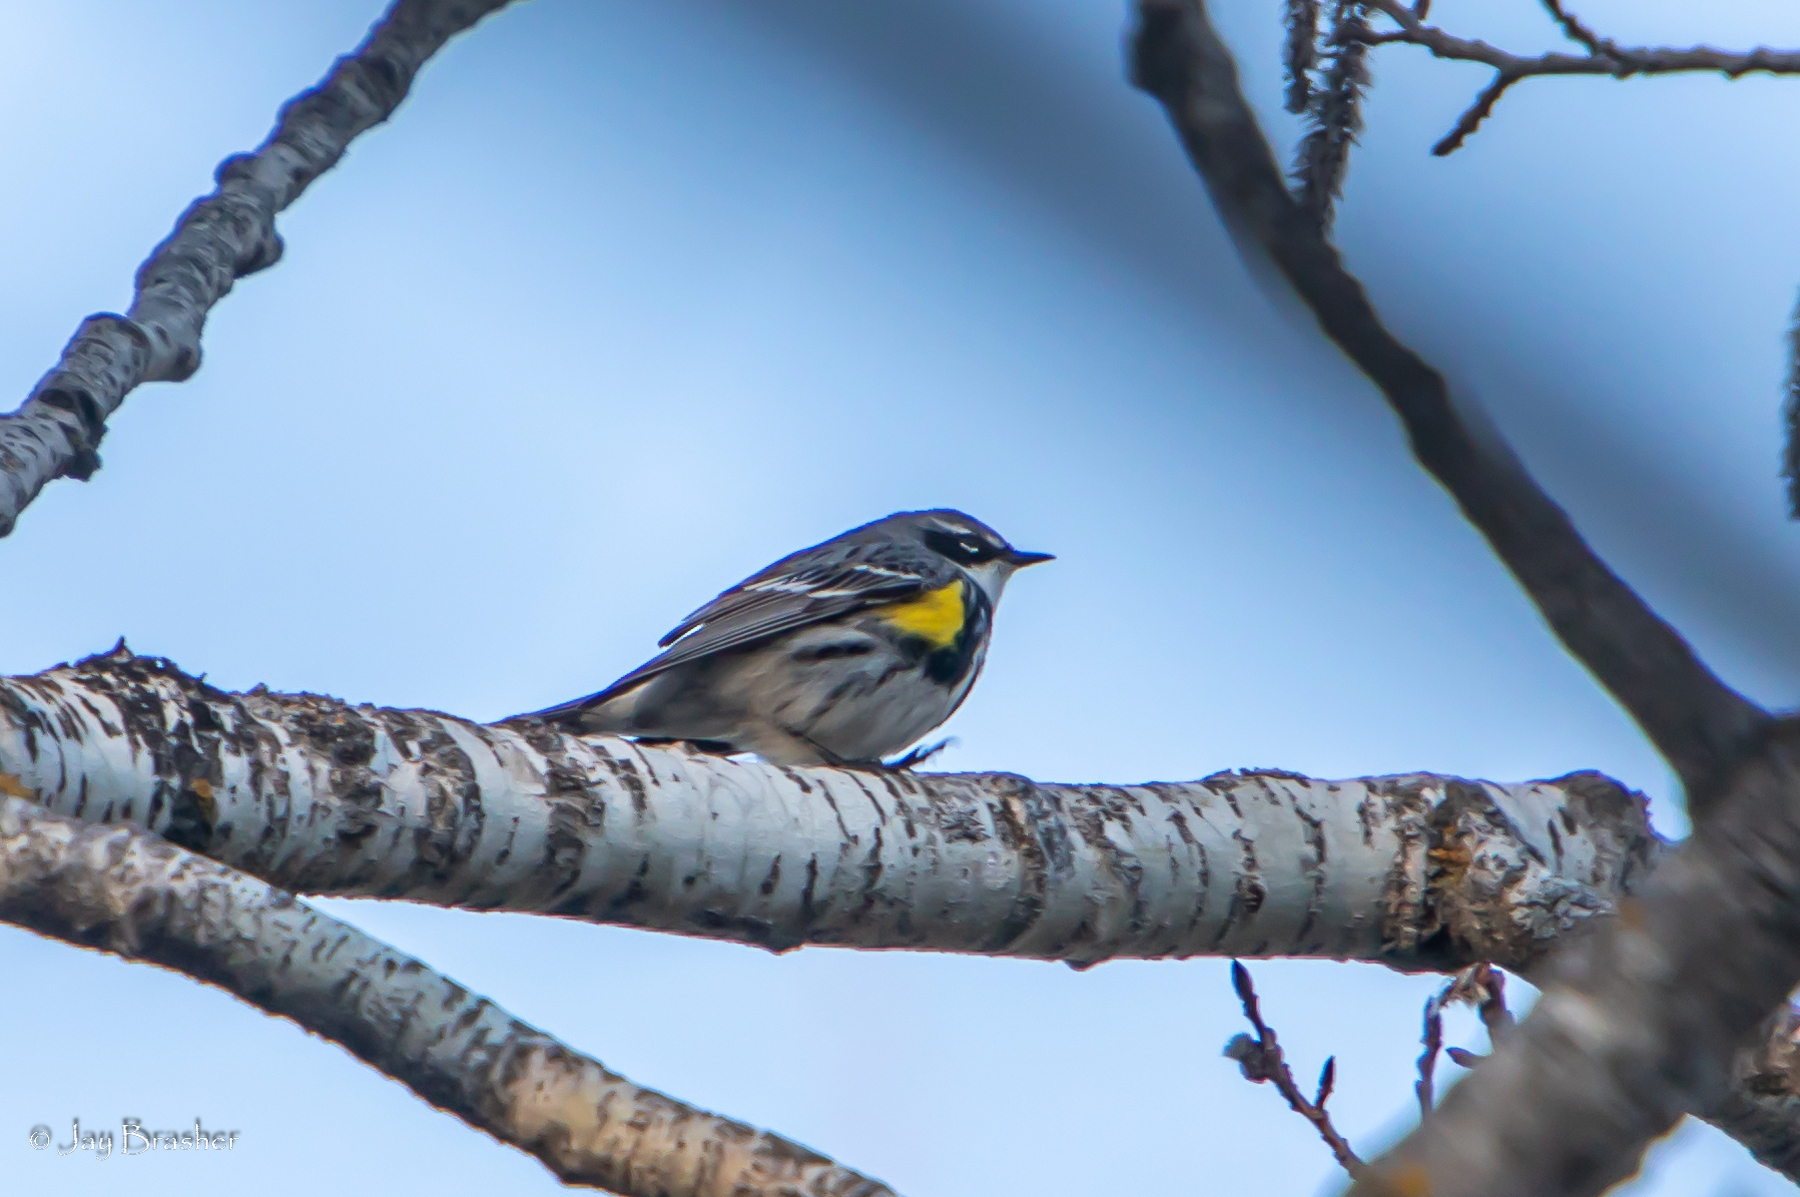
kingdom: Animalia
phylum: Chordata
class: Aves
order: Passeriformes
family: Parulidae
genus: Setophaga
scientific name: Setophaga coronata
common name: Myrtle warbler
